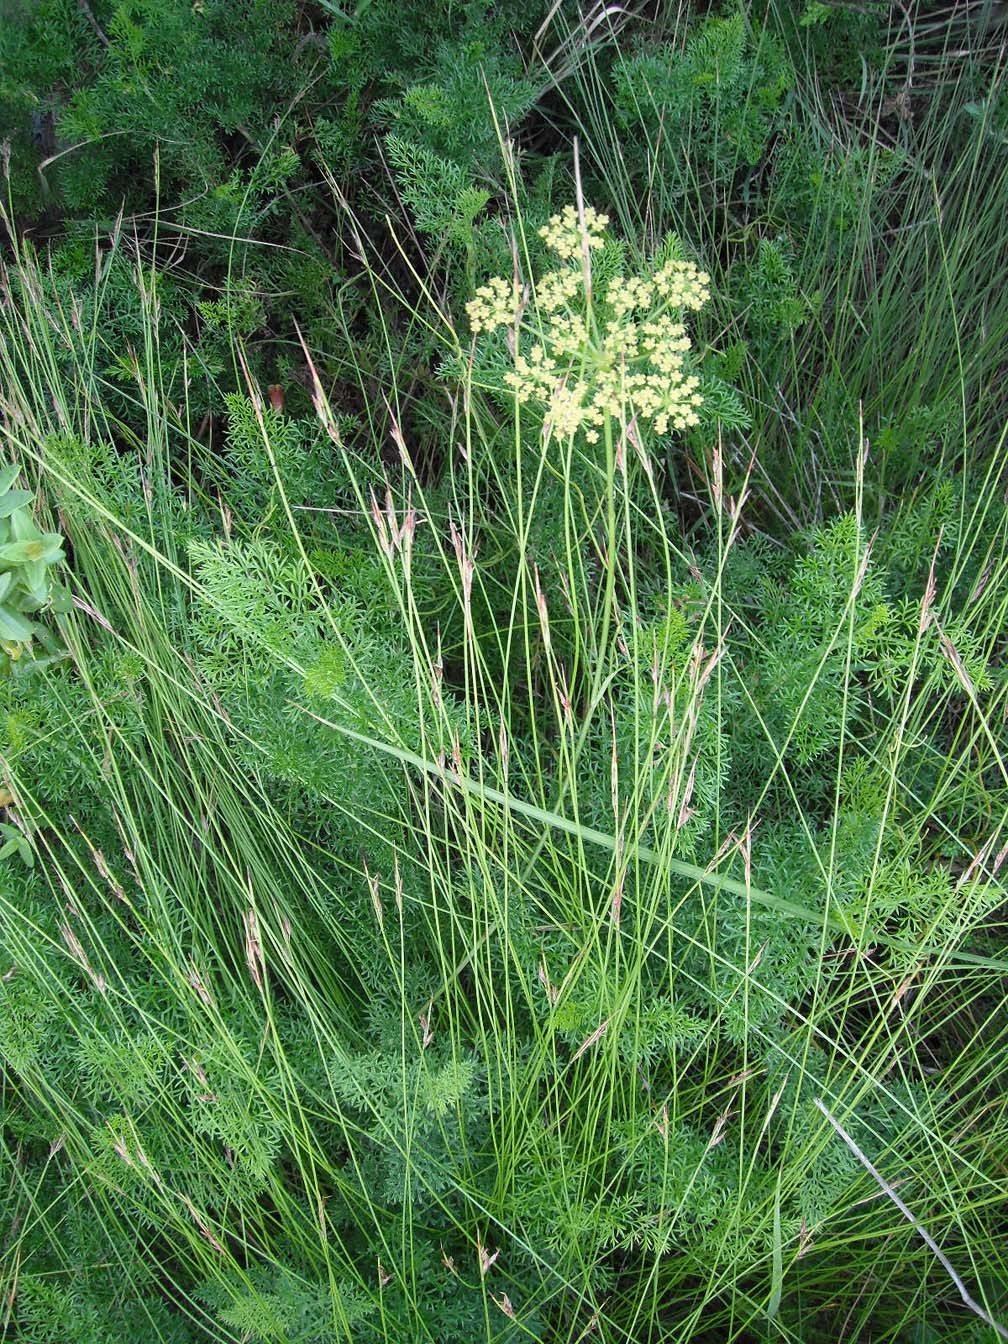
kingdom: Plantae
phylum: Tracheophyta
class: Magnoliopsida
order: Apiales
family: Apiaceae
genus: Notobubon
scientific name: Notobubon ferulaceum
